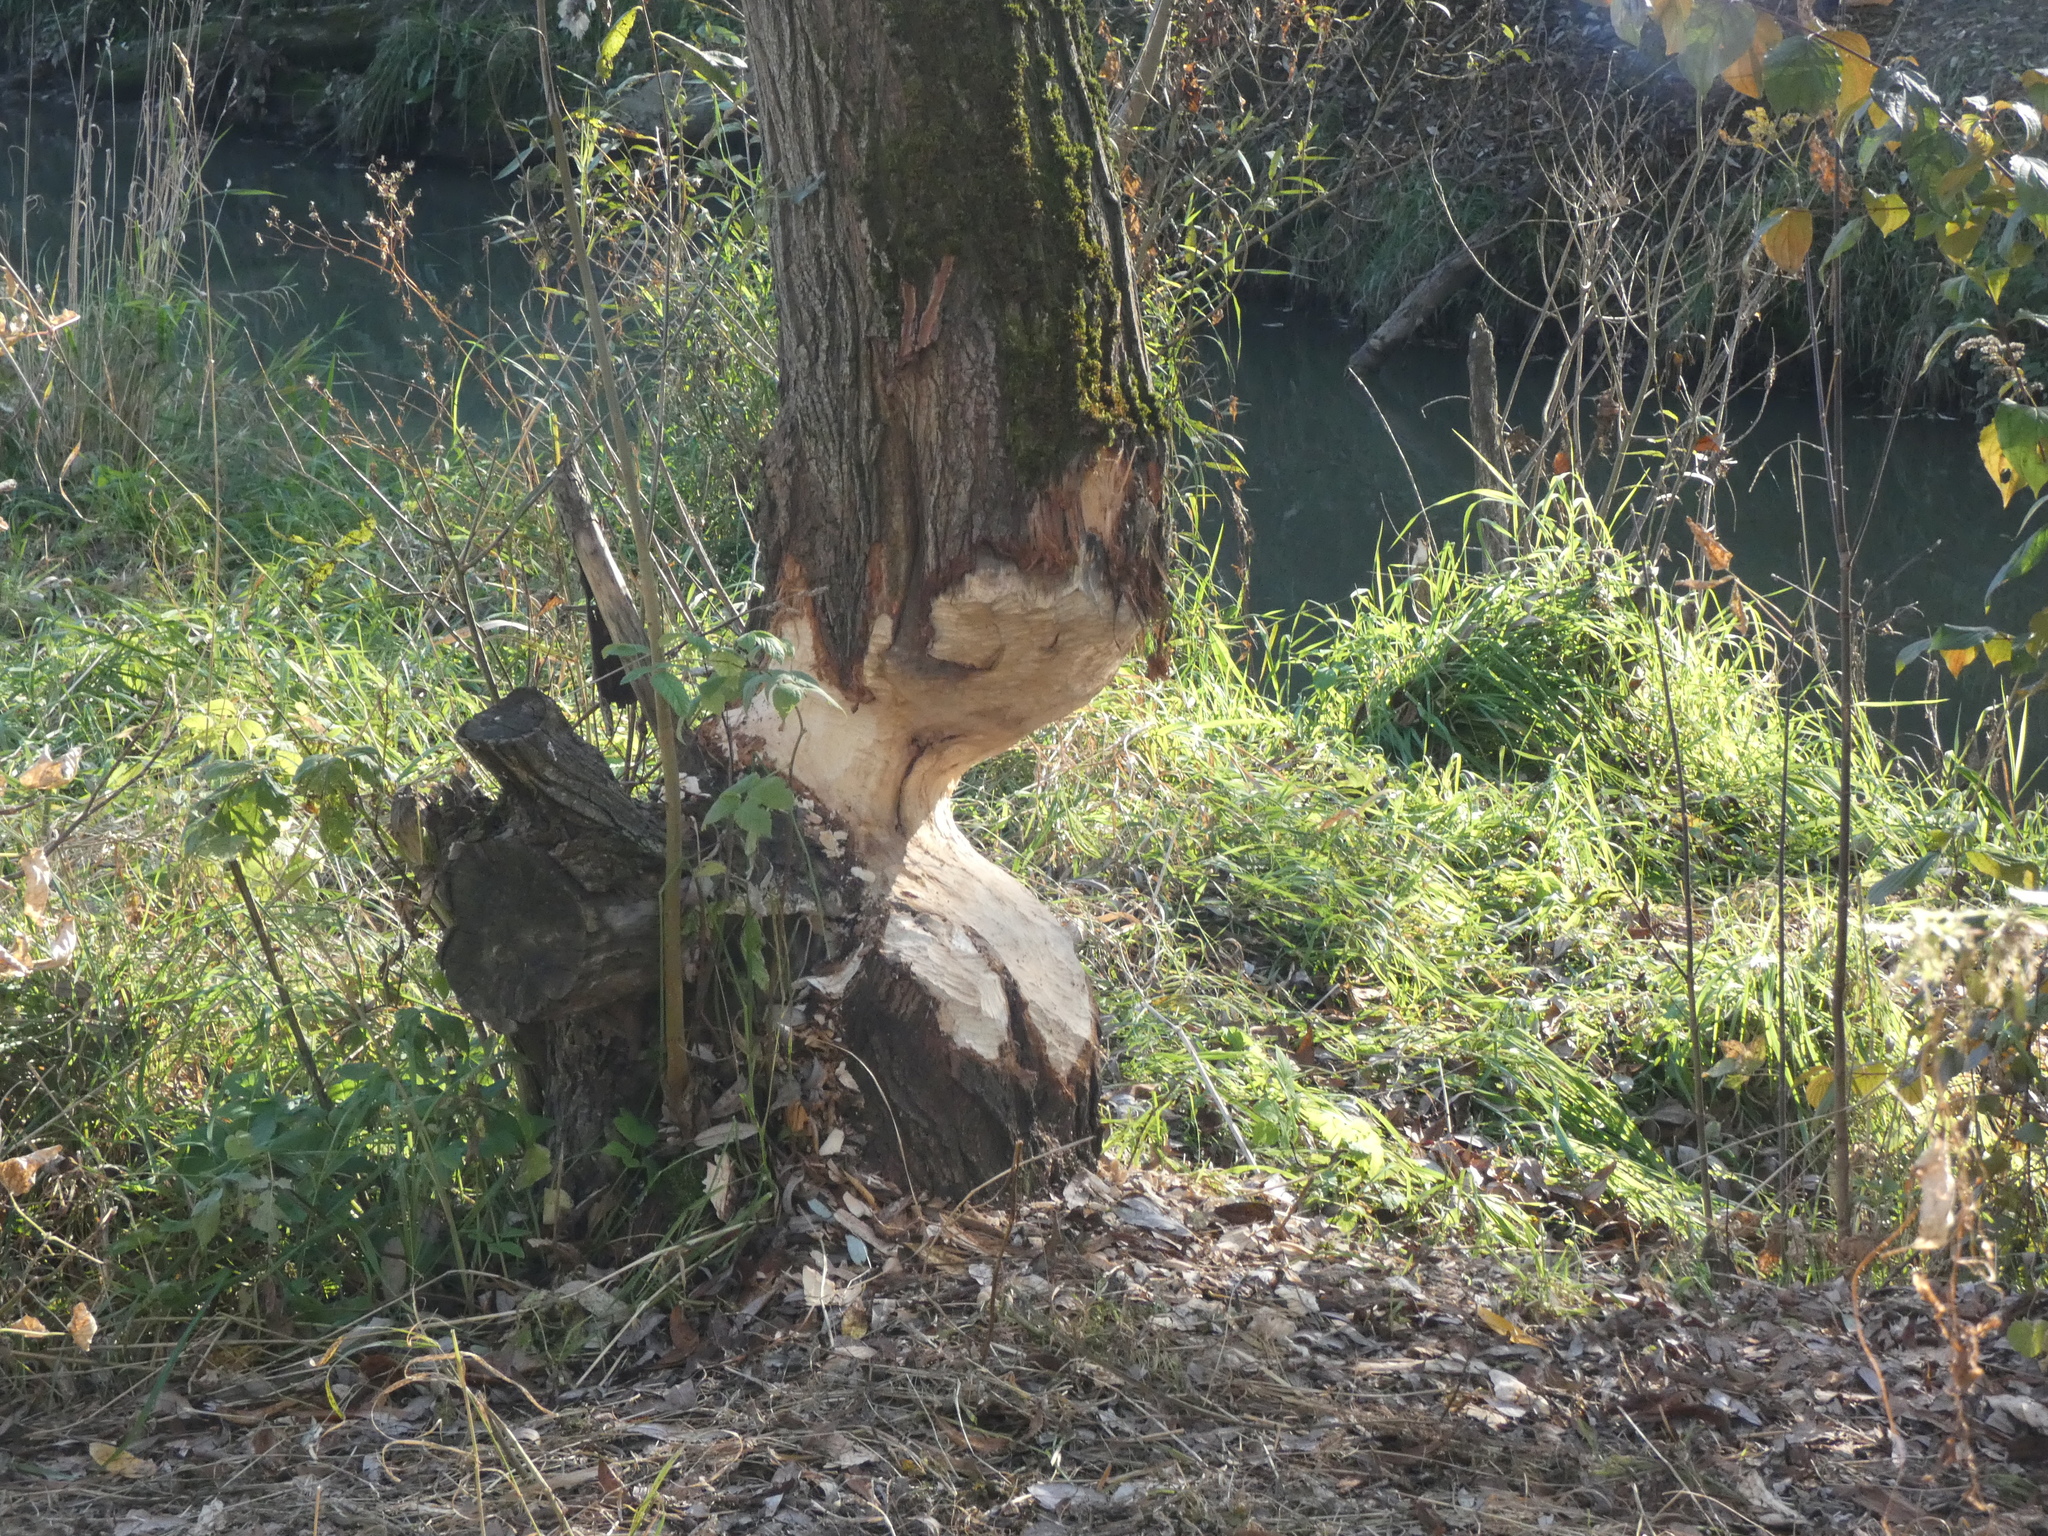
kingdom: Animalia
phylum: Chordata
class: Mammalia
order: Rodentia
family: Castoridae
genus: Castor
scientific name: Castor fiber
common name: Eurasian beaver
